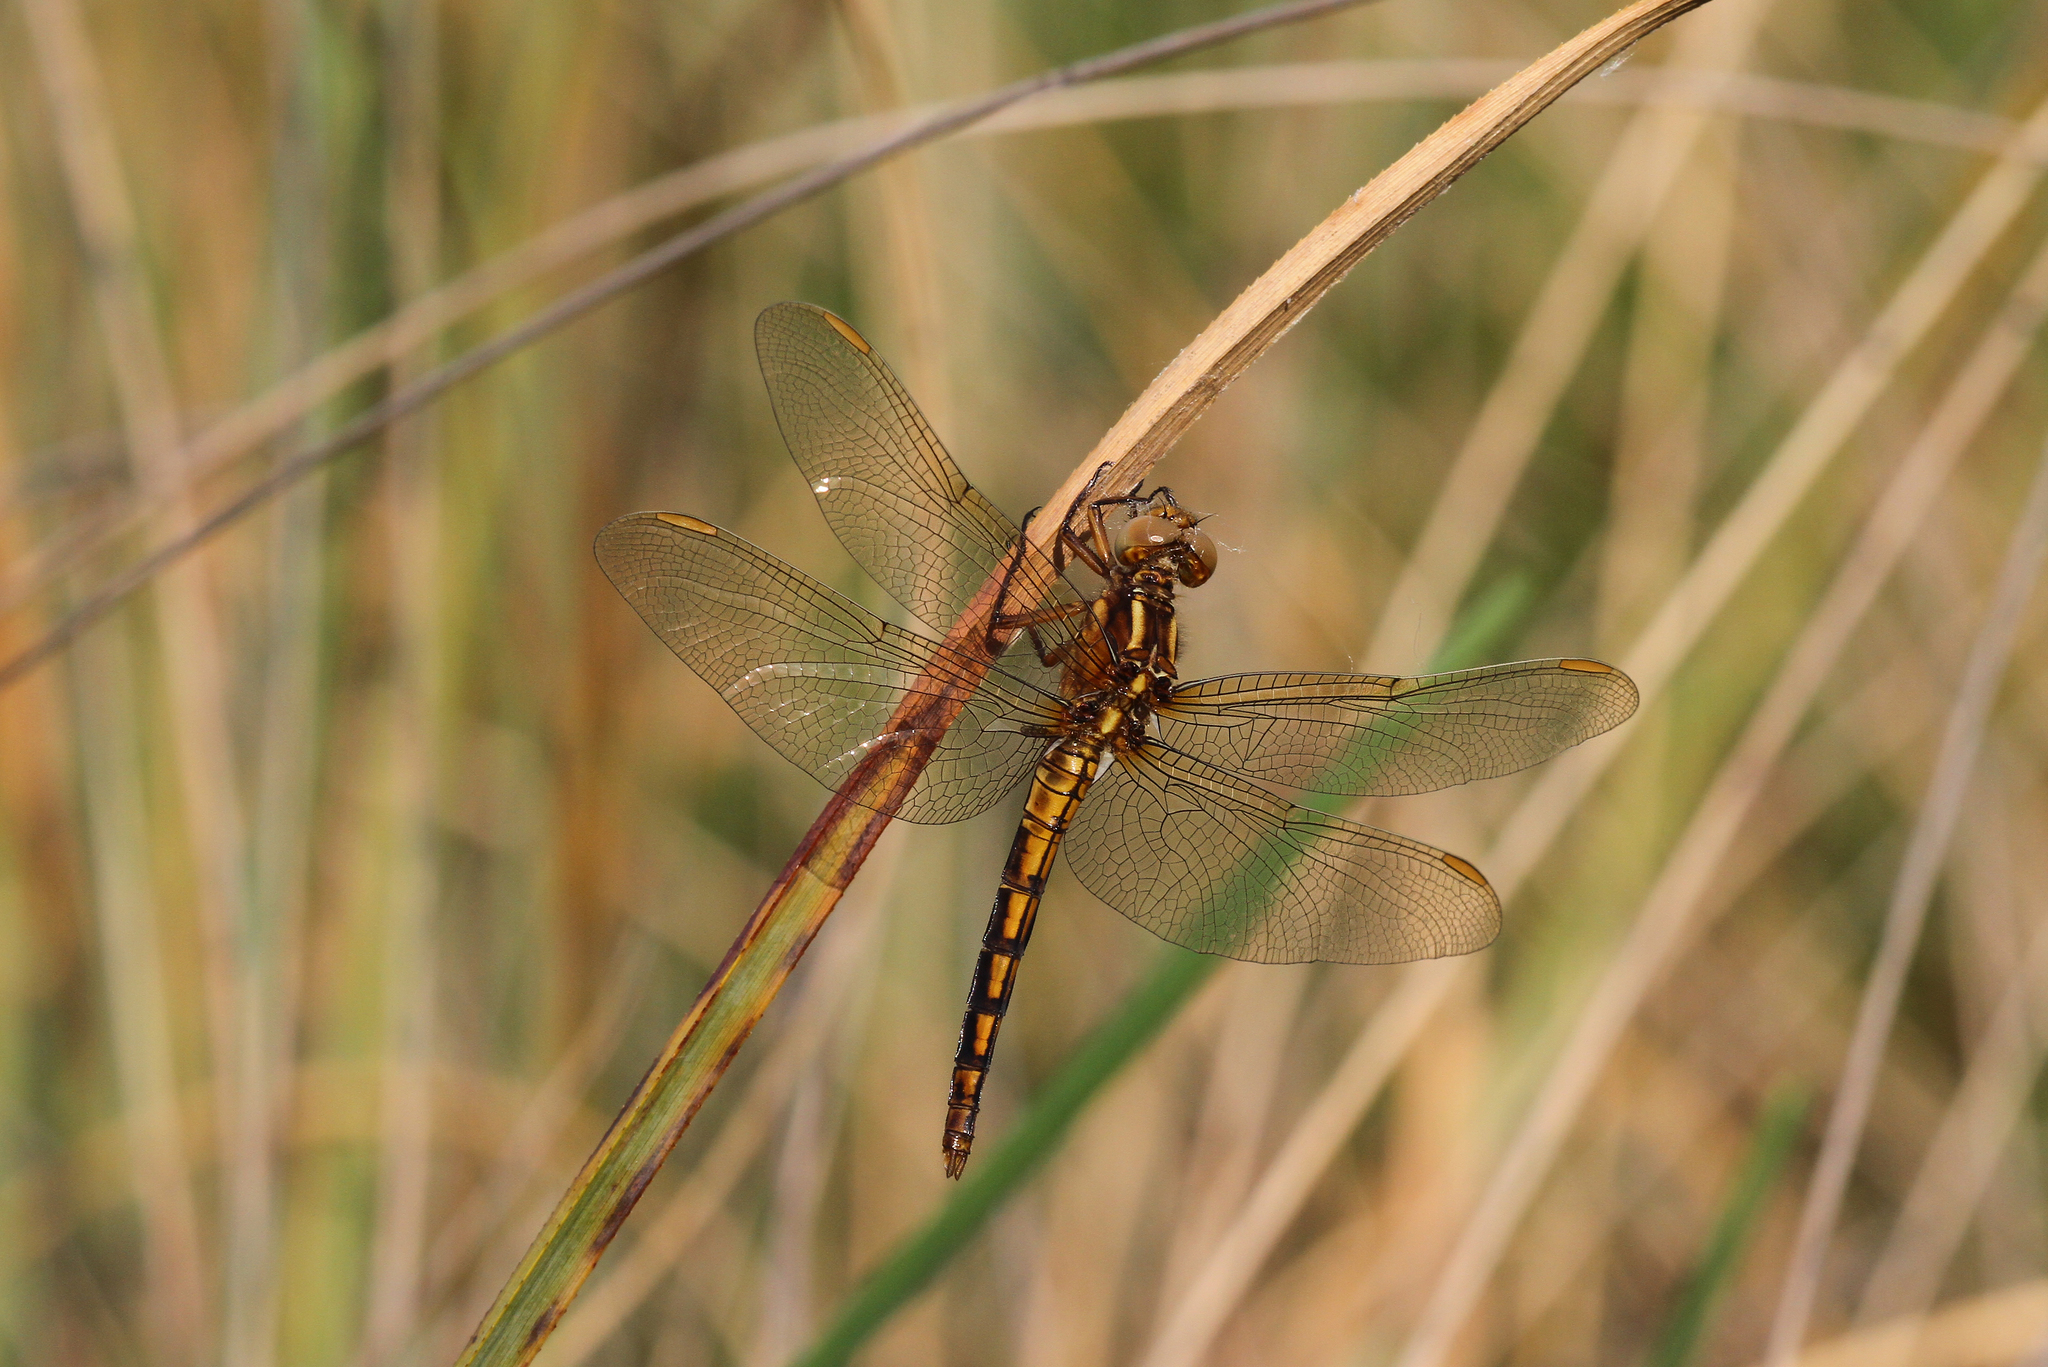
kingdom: Animalia
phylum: Arthropoda
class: Insecta
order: Odonata
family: Libellulidae
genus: Orthetrum
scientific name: Orthetrum coerulescens
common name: Keeled skimmer
